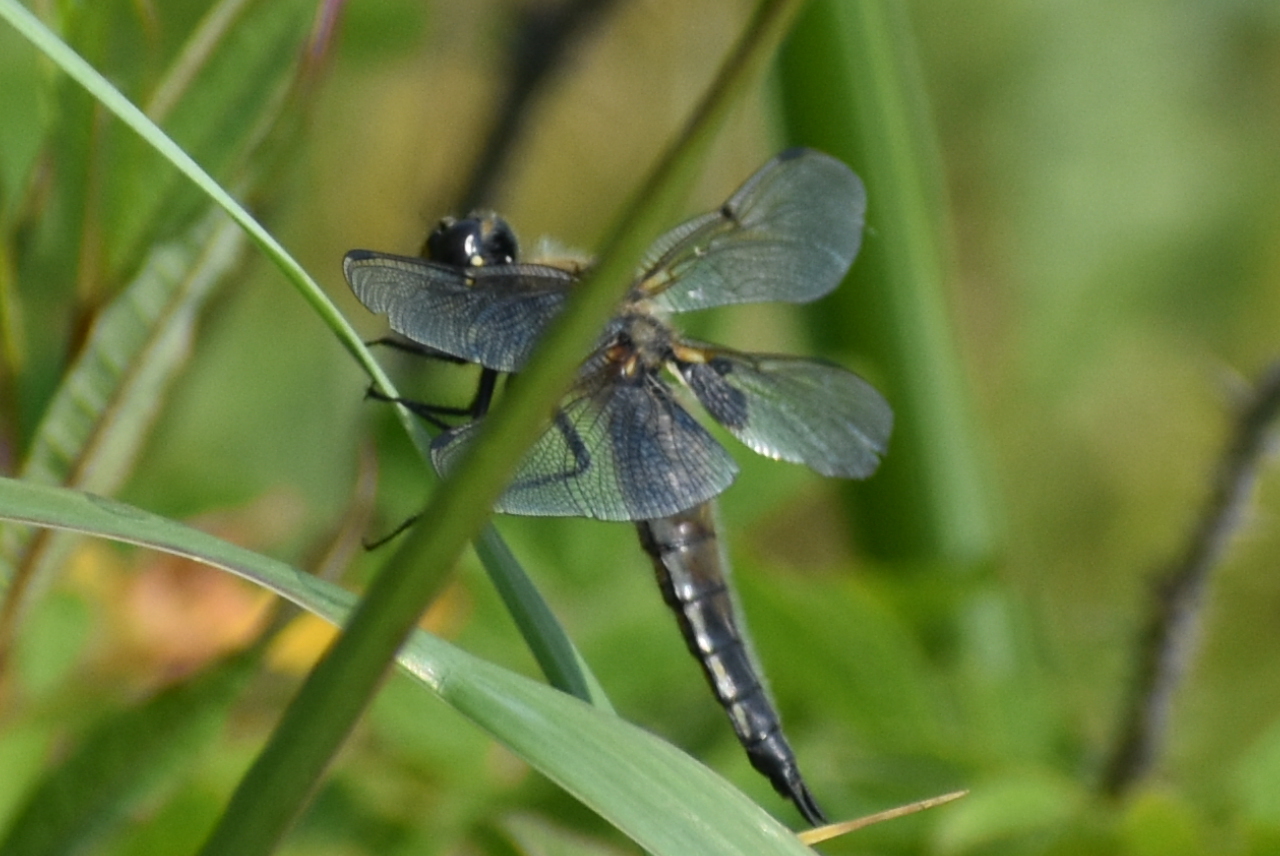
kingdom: Animalia
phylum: Arthropoda
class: Insecta
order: Odonata
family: Libellulidae
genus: Libellula
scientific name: Libellula quadrimaculata
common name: Four-spotted chaser
